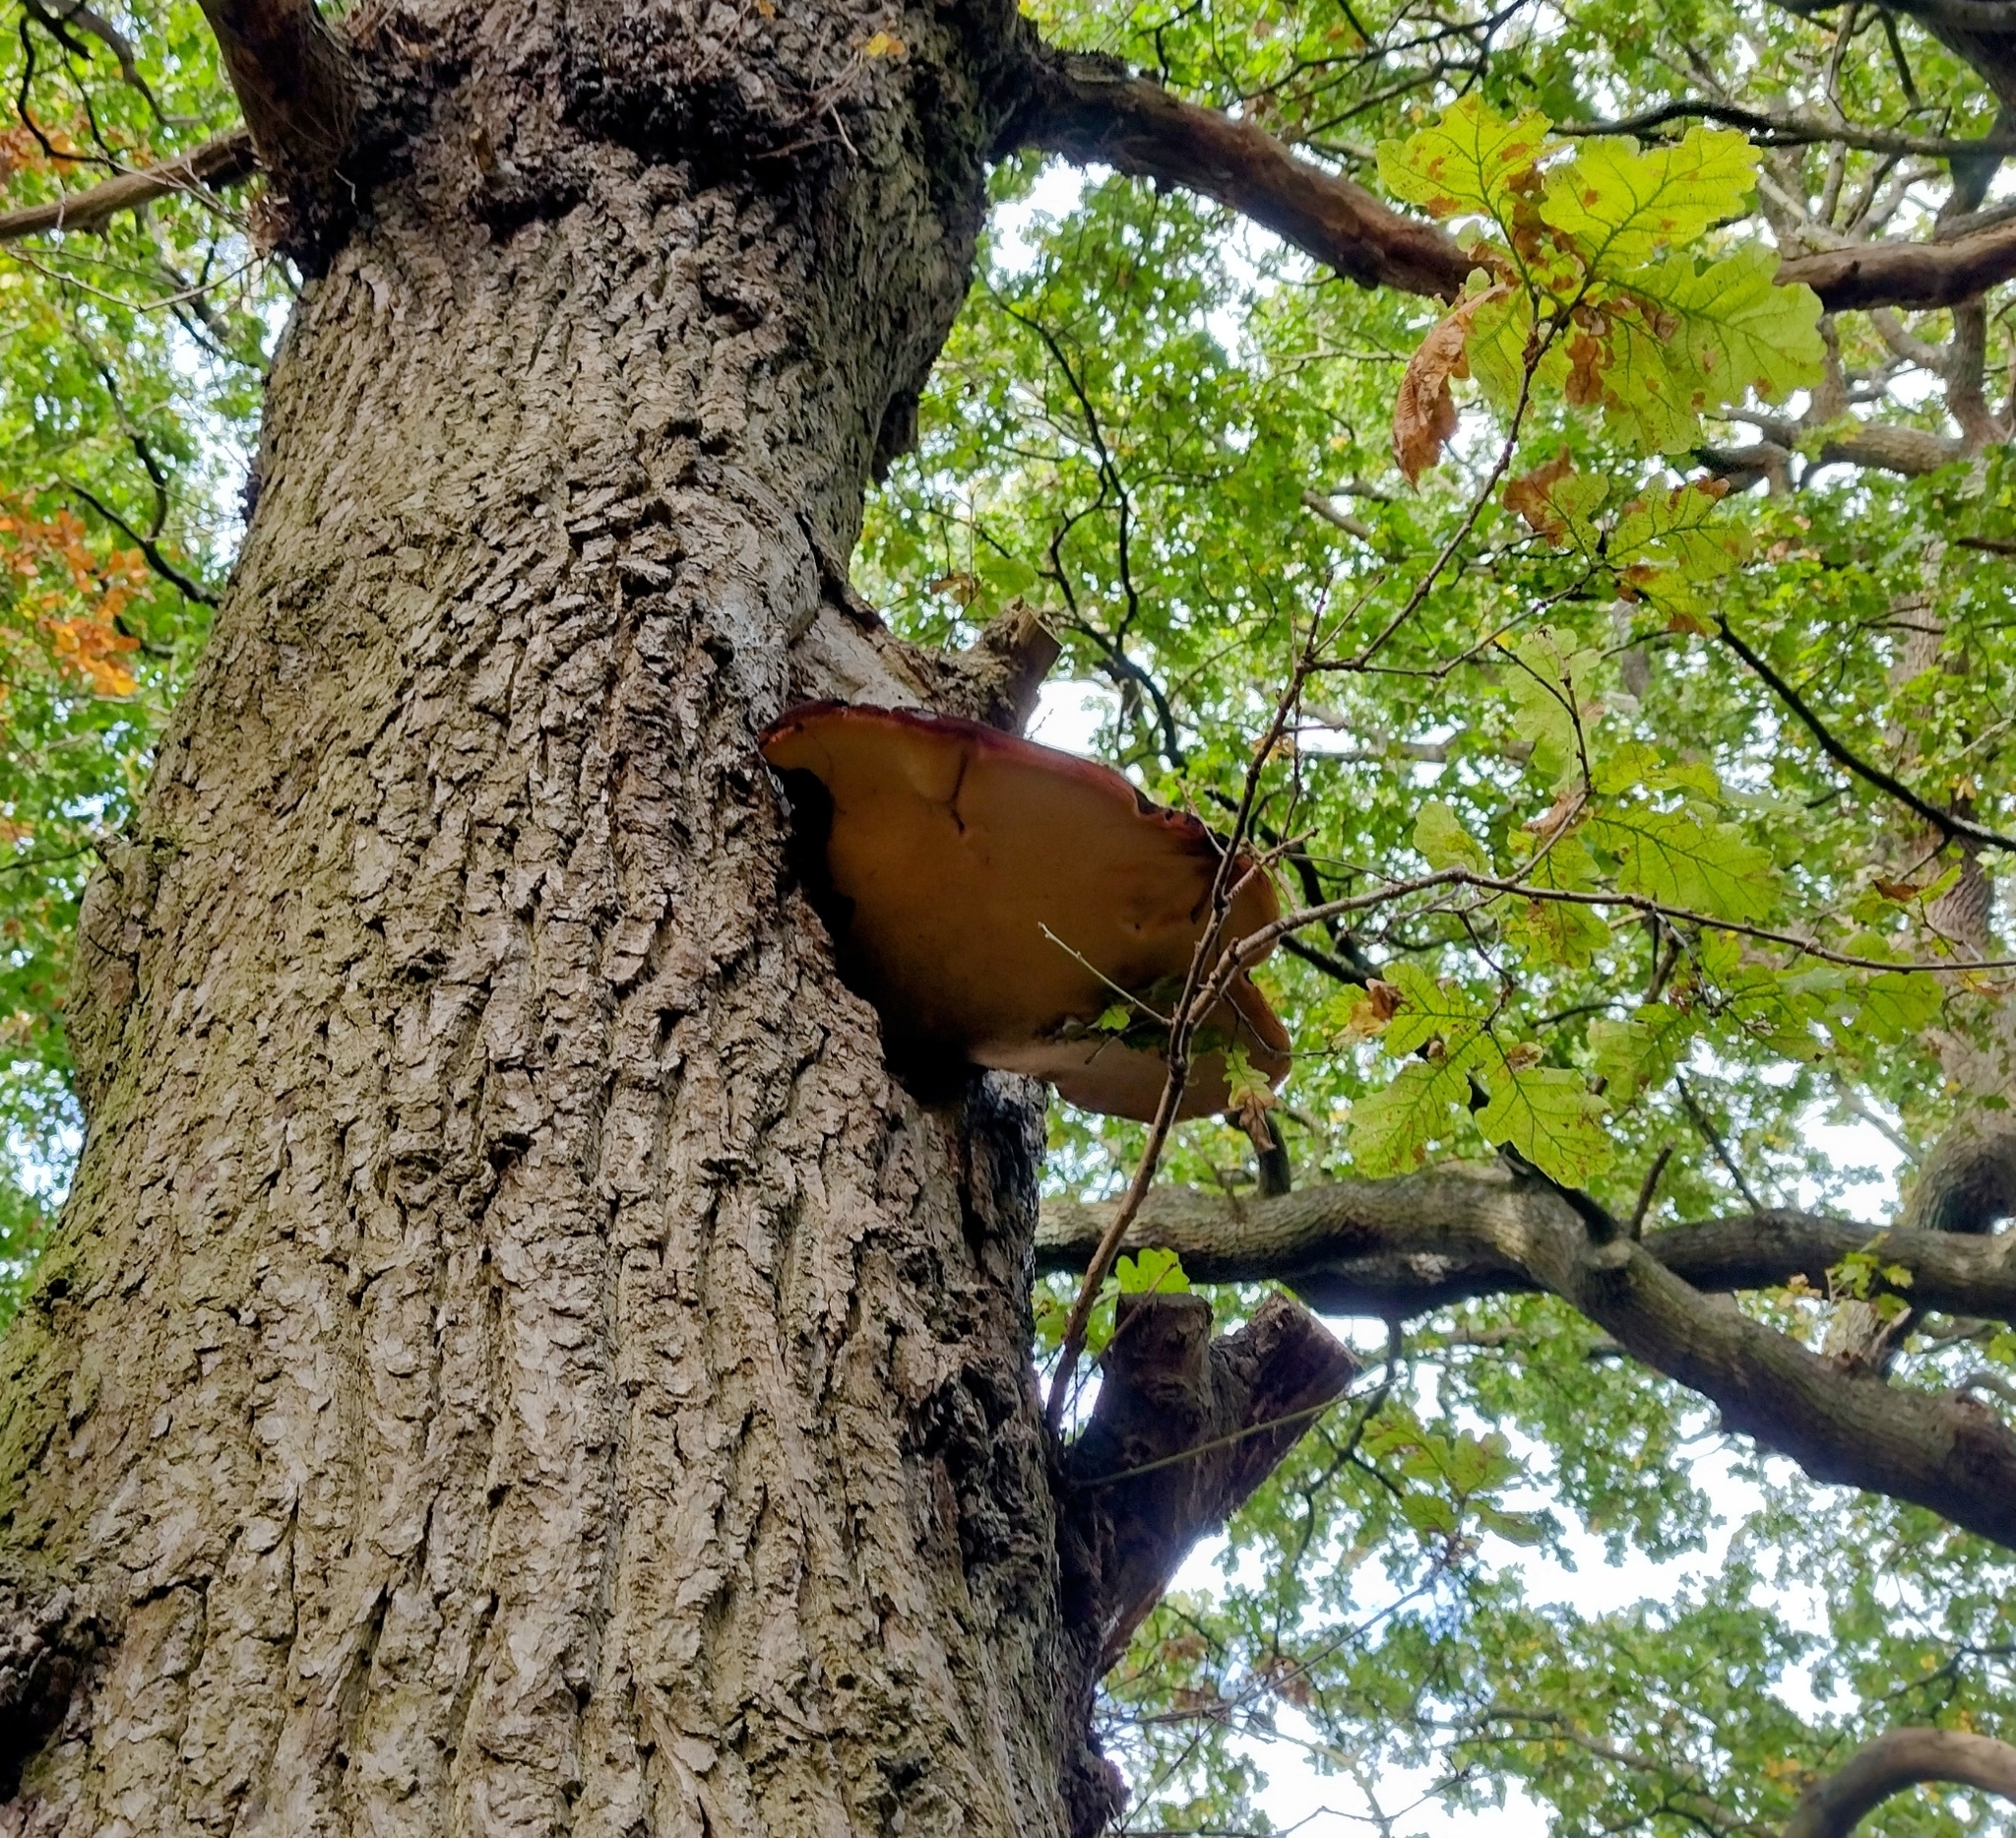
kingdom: Fungi
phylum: Basidiomycota
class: Agaricomycetes
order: Agaricales
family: Fistulinaceae
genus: Fistulina
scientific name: Fistulina hepatica
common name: Beef-steak fungus
